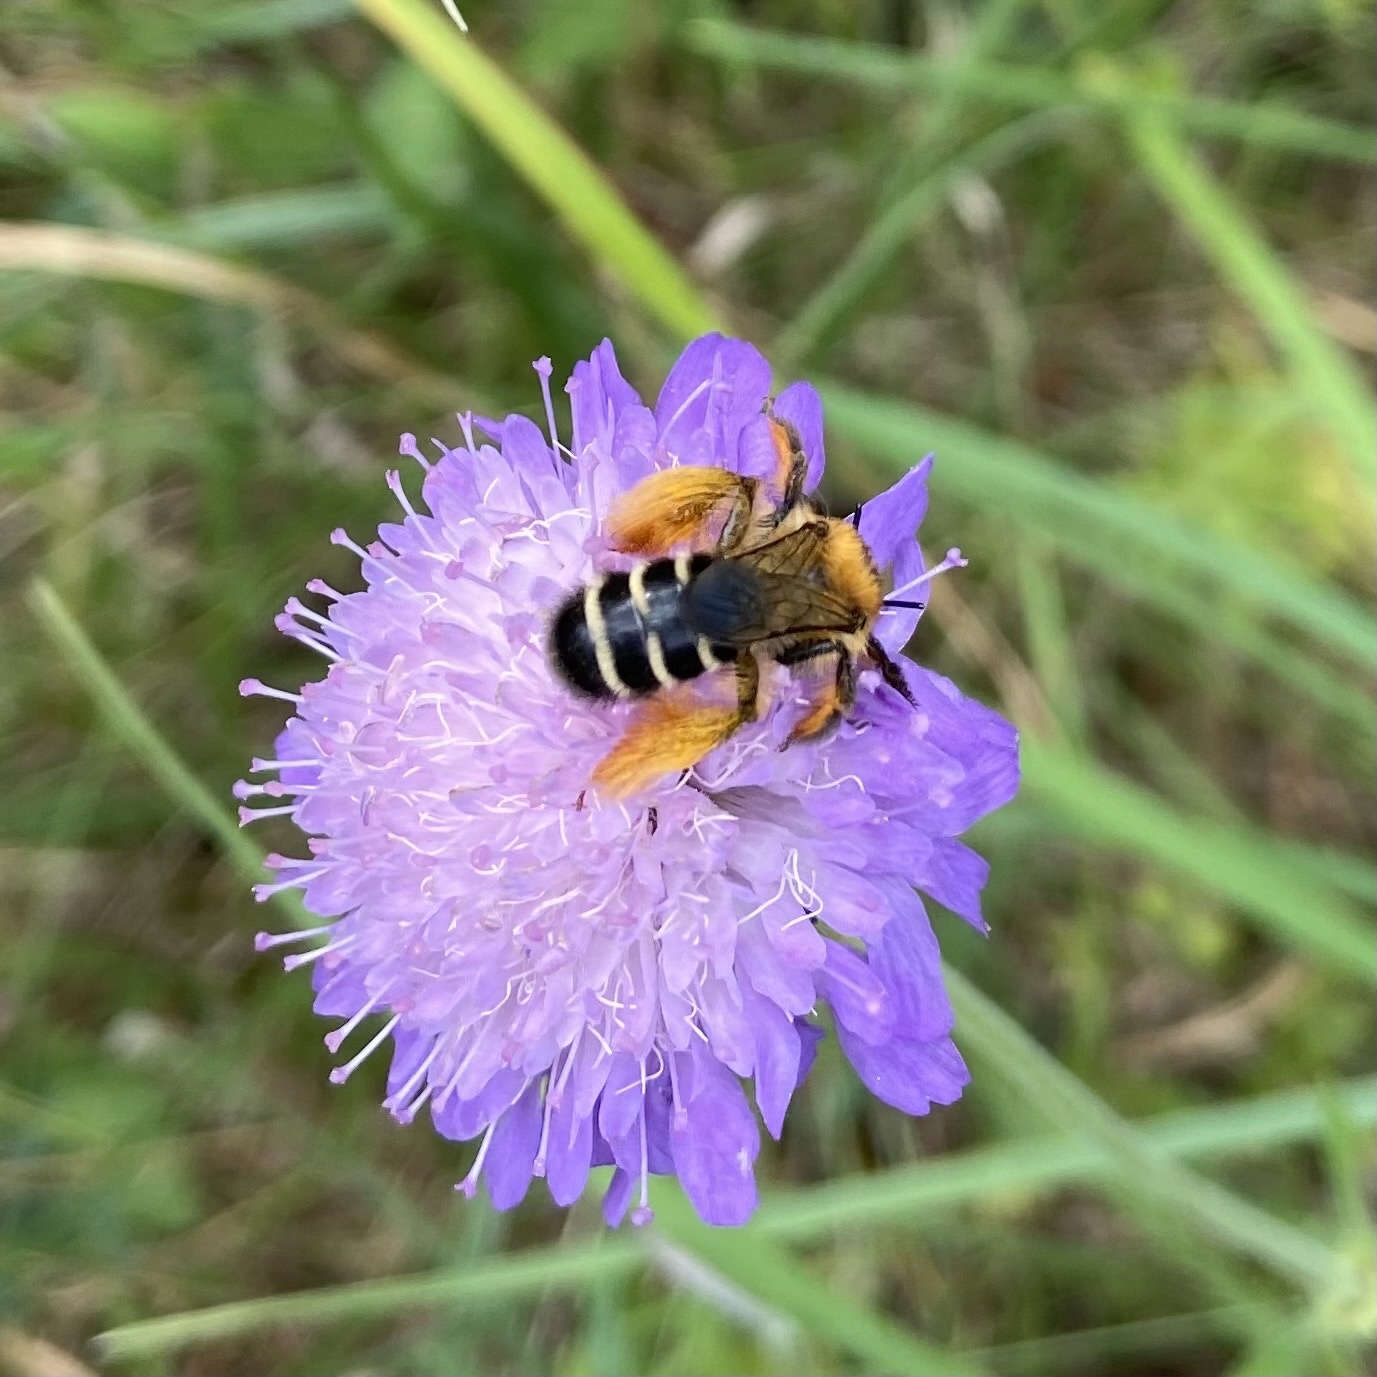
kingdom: Animalia
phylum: Arthropoda
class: Insecta
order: Hymenoptera
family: Melittidae
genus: Dasypoda
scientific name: Dasypoda hirtipes
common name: Pantaloon bee
